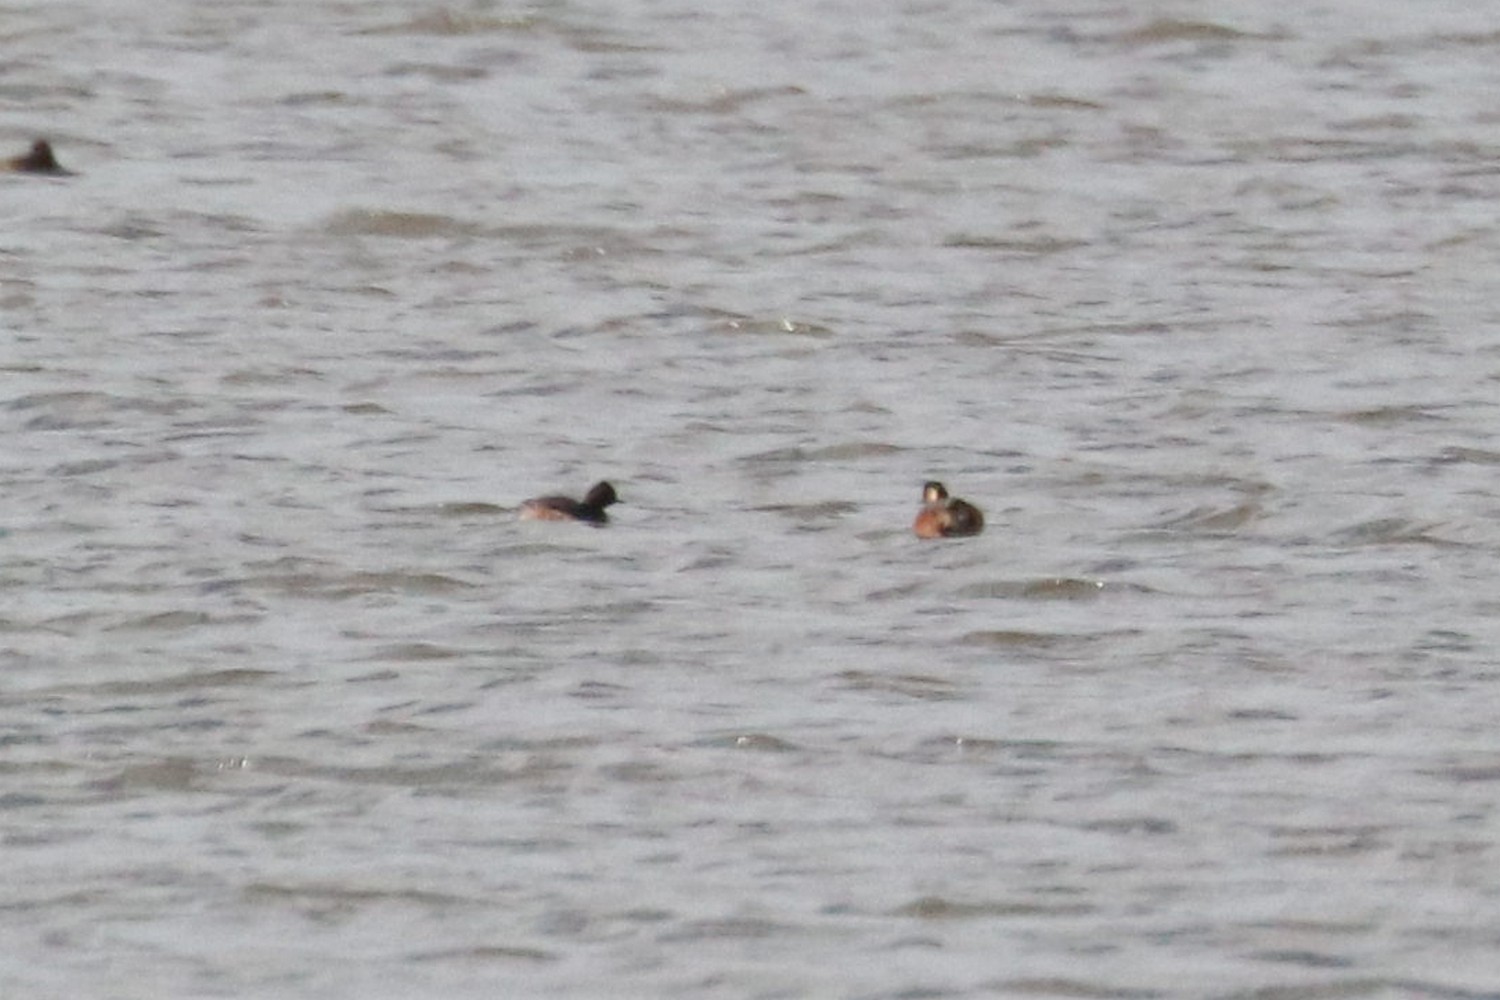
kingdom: Animalia
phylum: Chordata
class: Aves
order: Podicipediformes
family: Podicipedidae
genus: Podiceps
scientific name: Podiceps nigricollis
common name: Black-necked grebe
